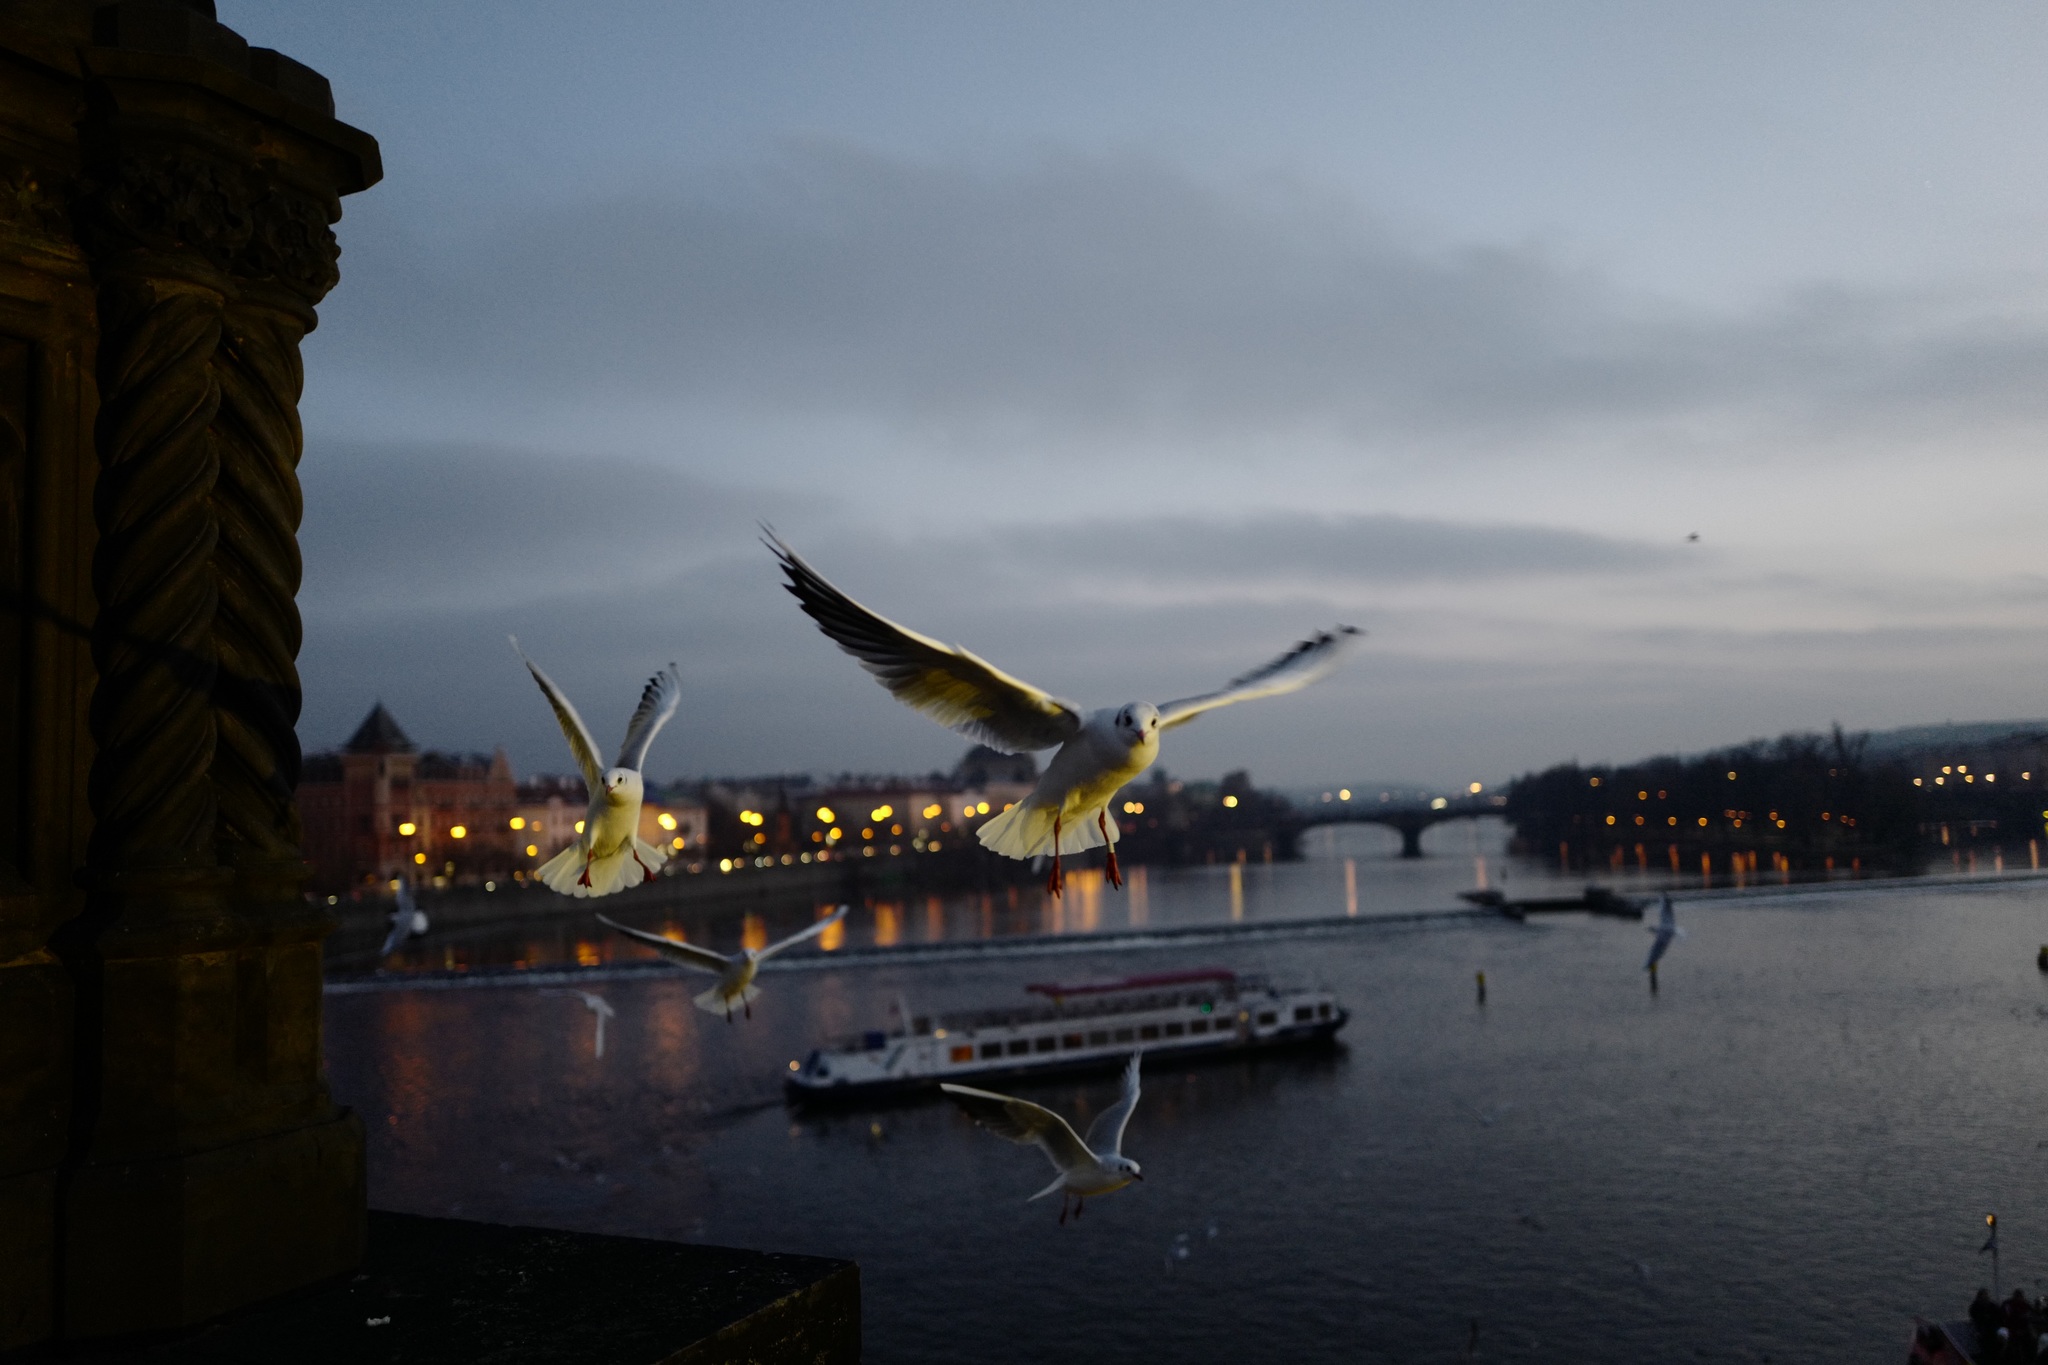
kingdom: Animalia
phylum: Chordata
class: Aves
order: Charadriiformes
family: Laridae
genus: Chroicocephalus
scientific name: Chroicocephalus ridibundus
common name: Black-headed gull
